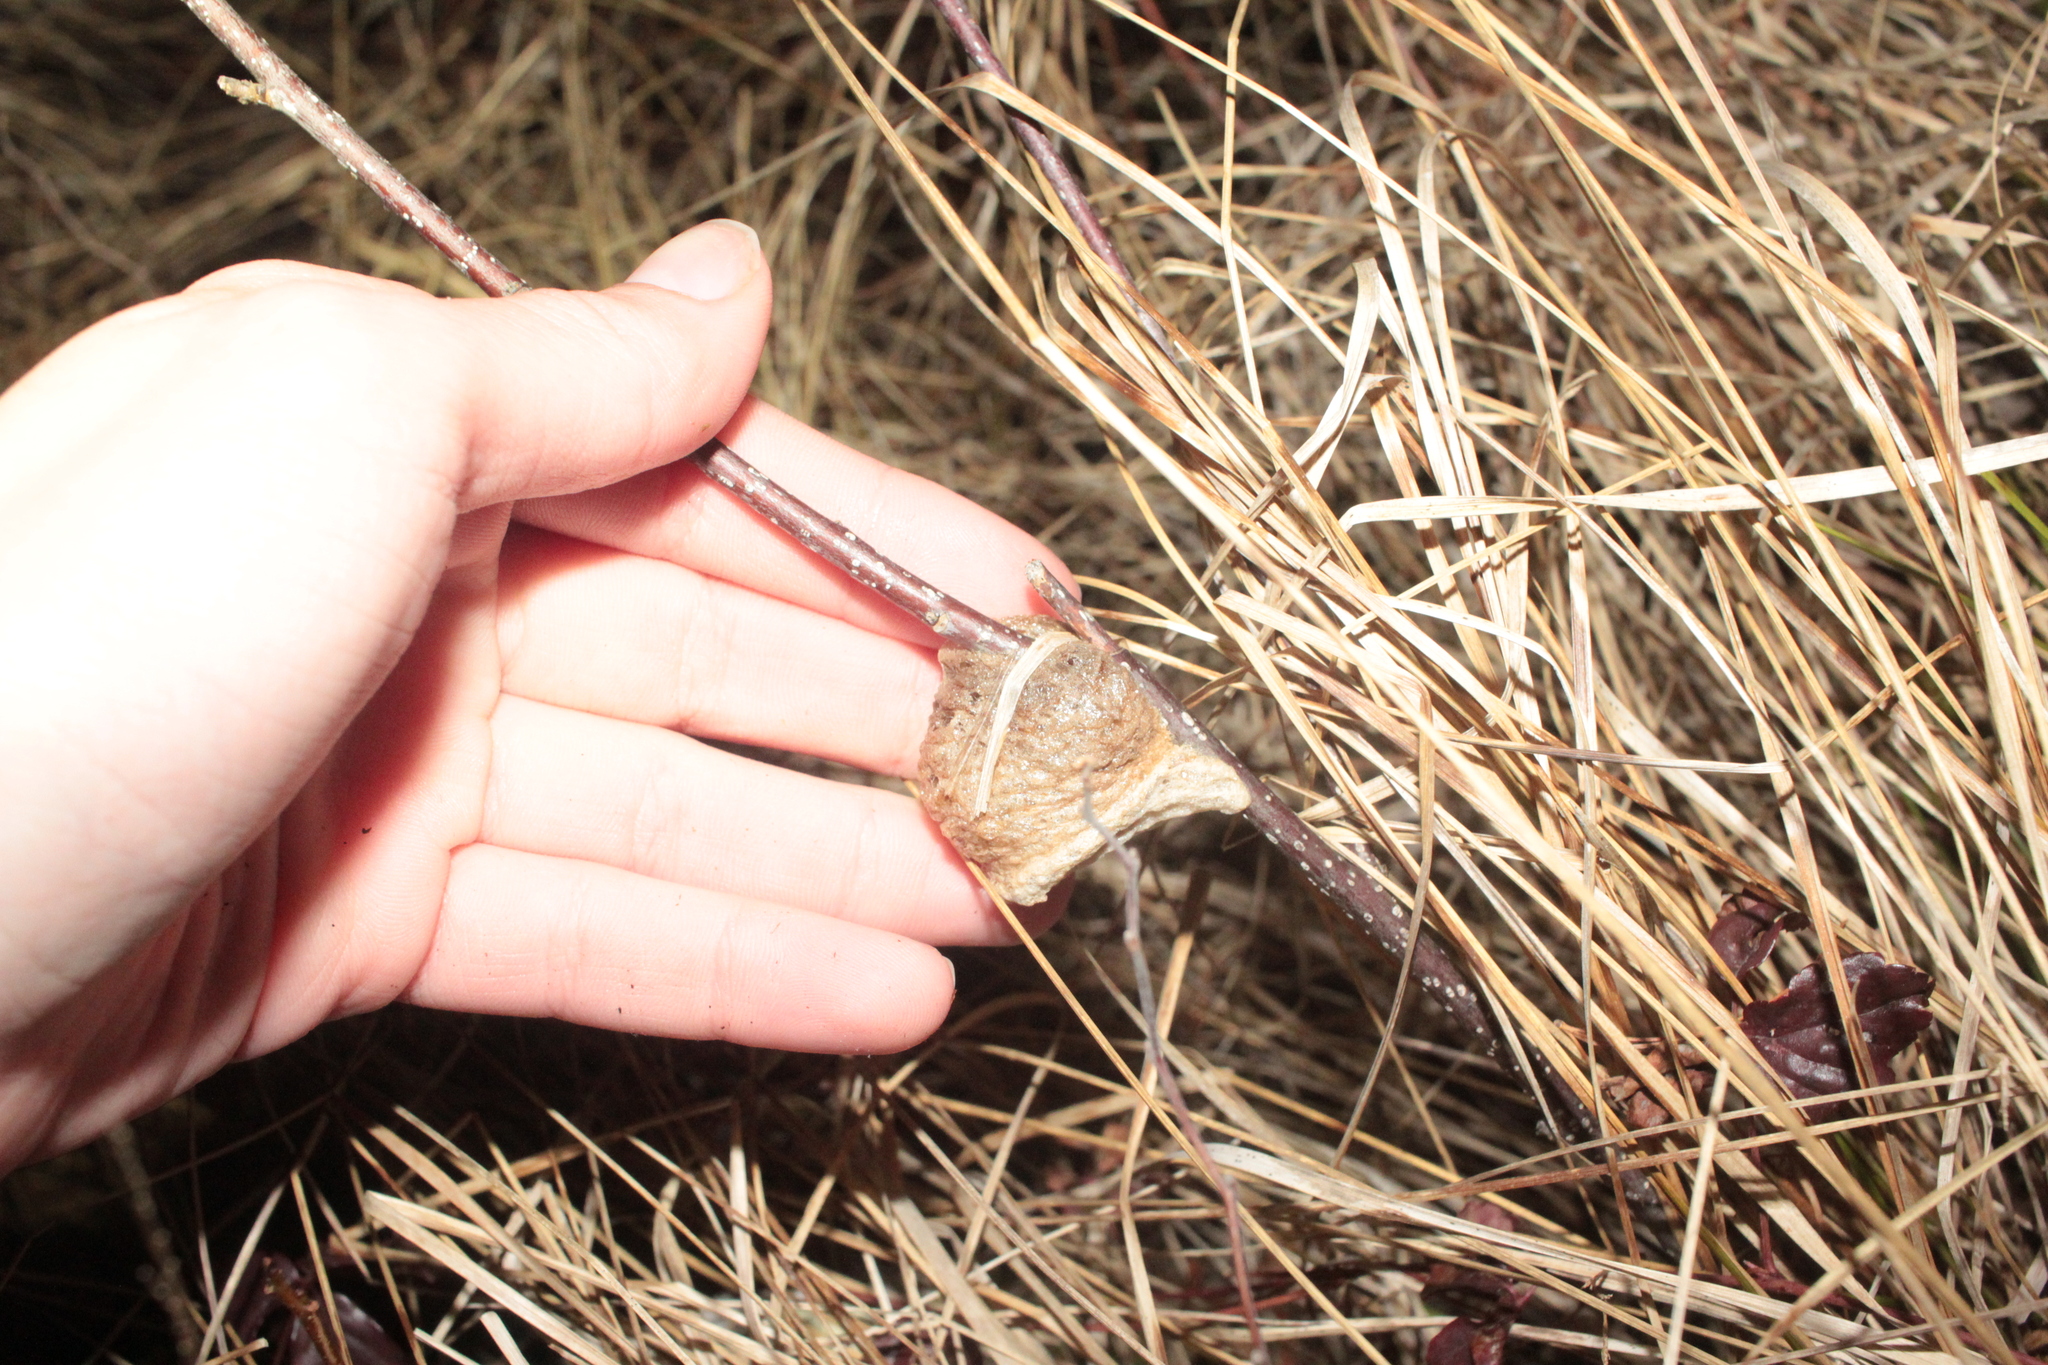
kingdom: Animalia
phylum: Arthropoda
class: Insecta
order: Mantodea
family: Mantidae
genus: Tenodera
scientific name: Tenodera sinensis
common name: Chinese mantis
